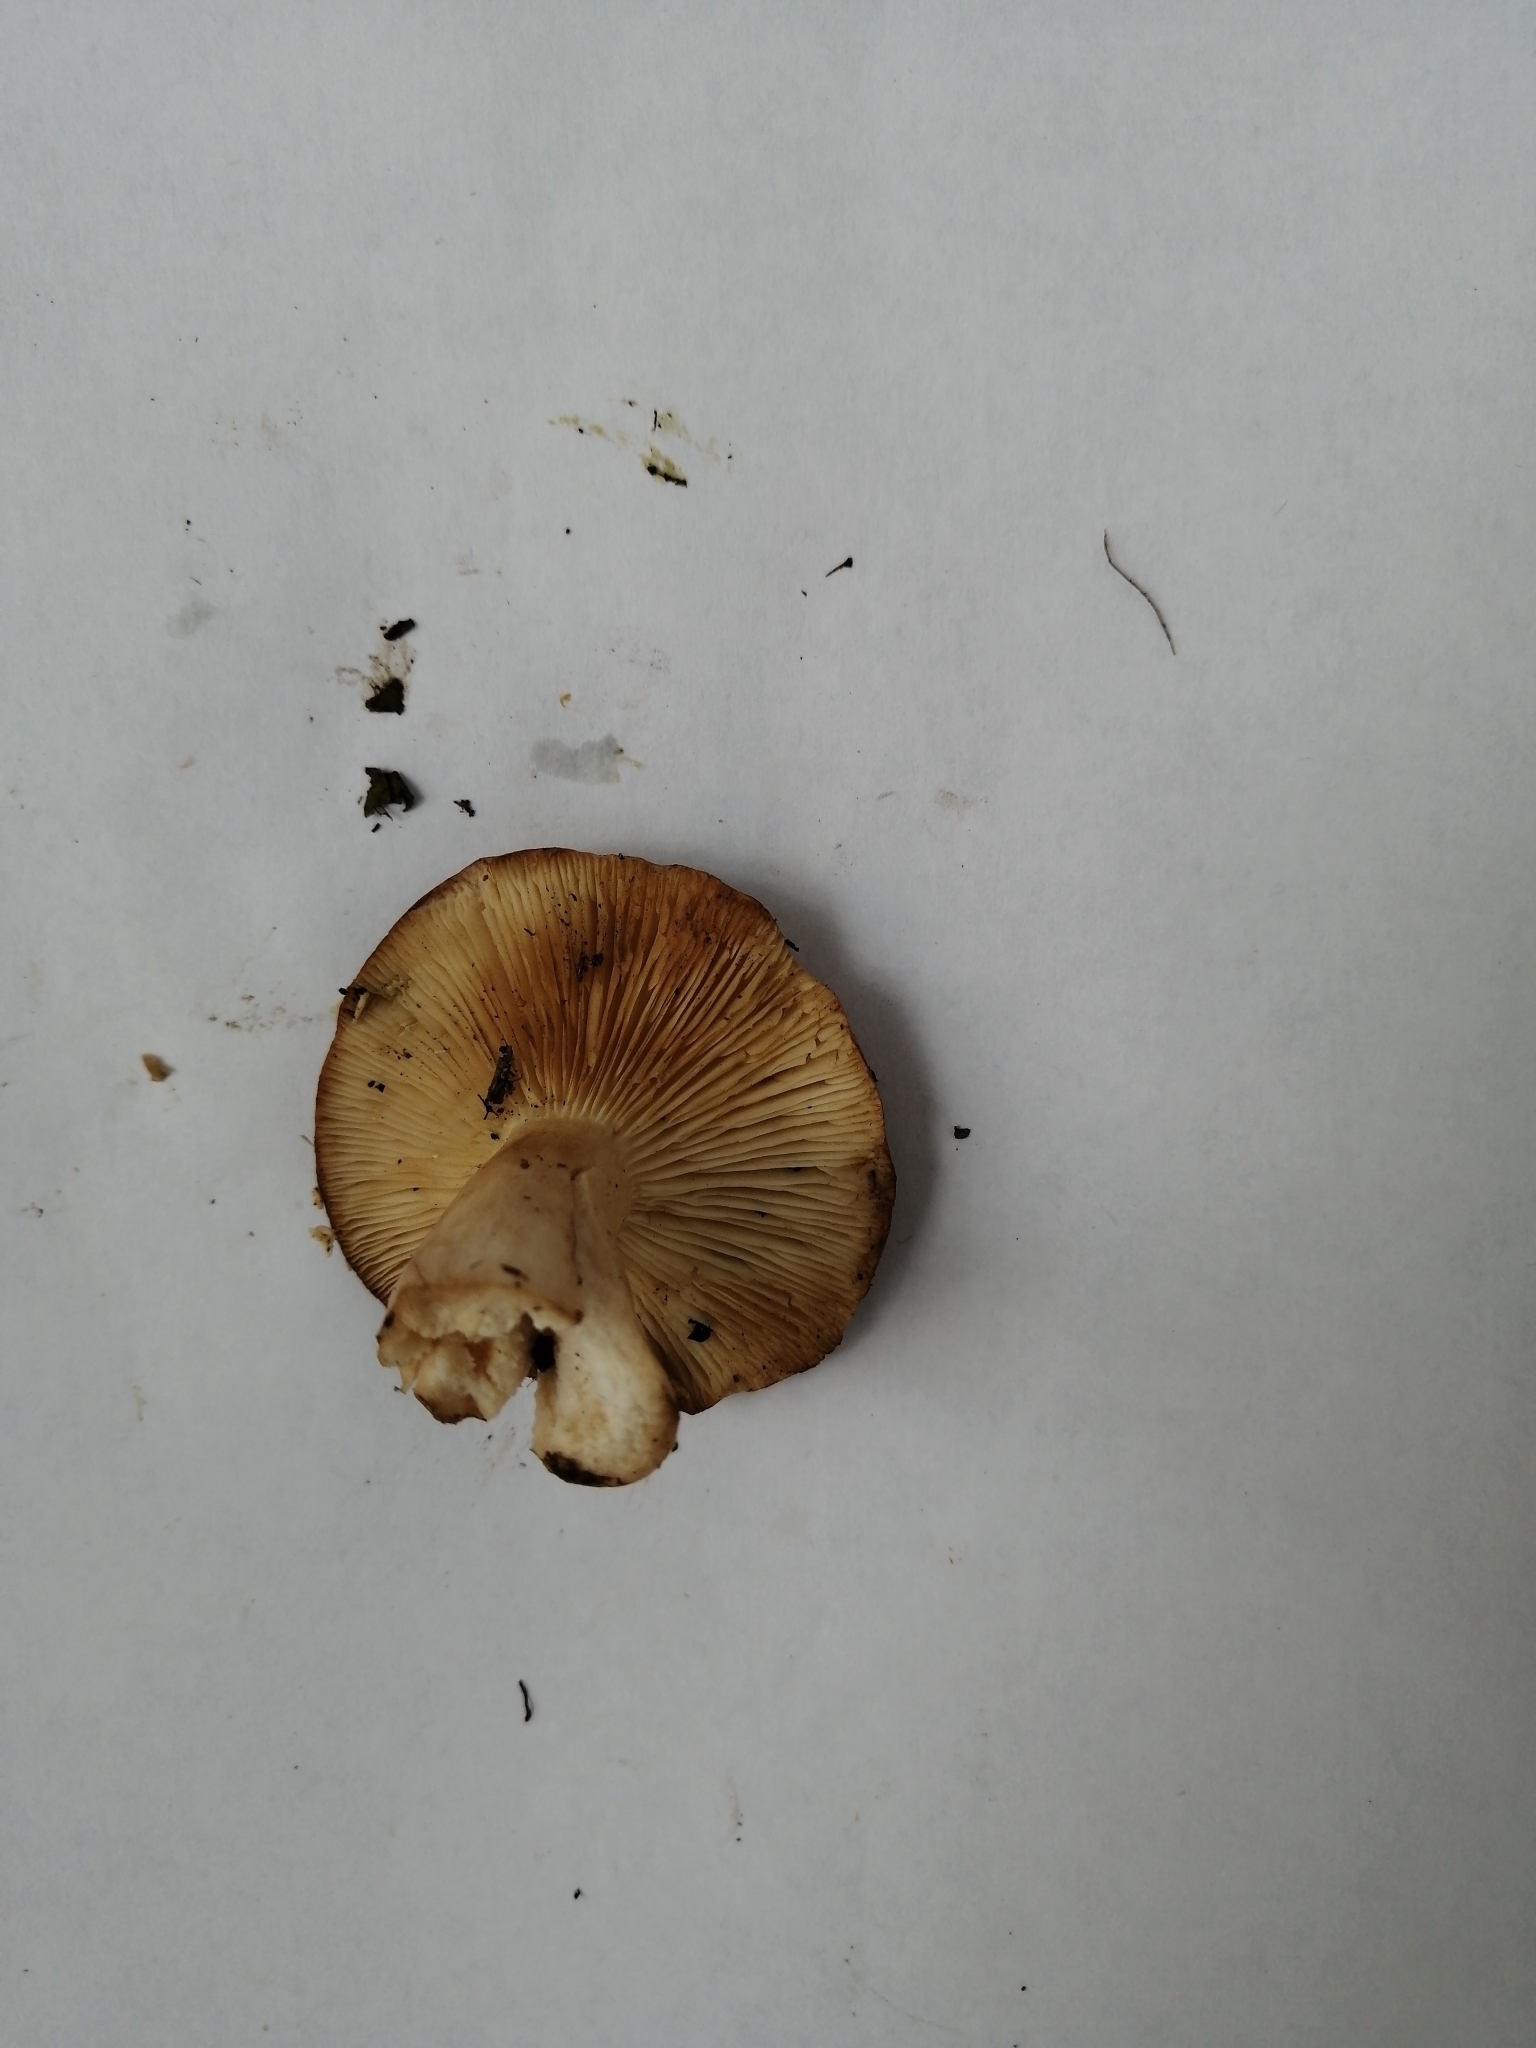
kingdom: Fungi
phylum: Basidiomycota
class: Agaricomycetes
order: Russulales
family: Russulaceae
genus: Lactarius
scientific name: Lactarius trivialis
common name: Tacked milkcap
